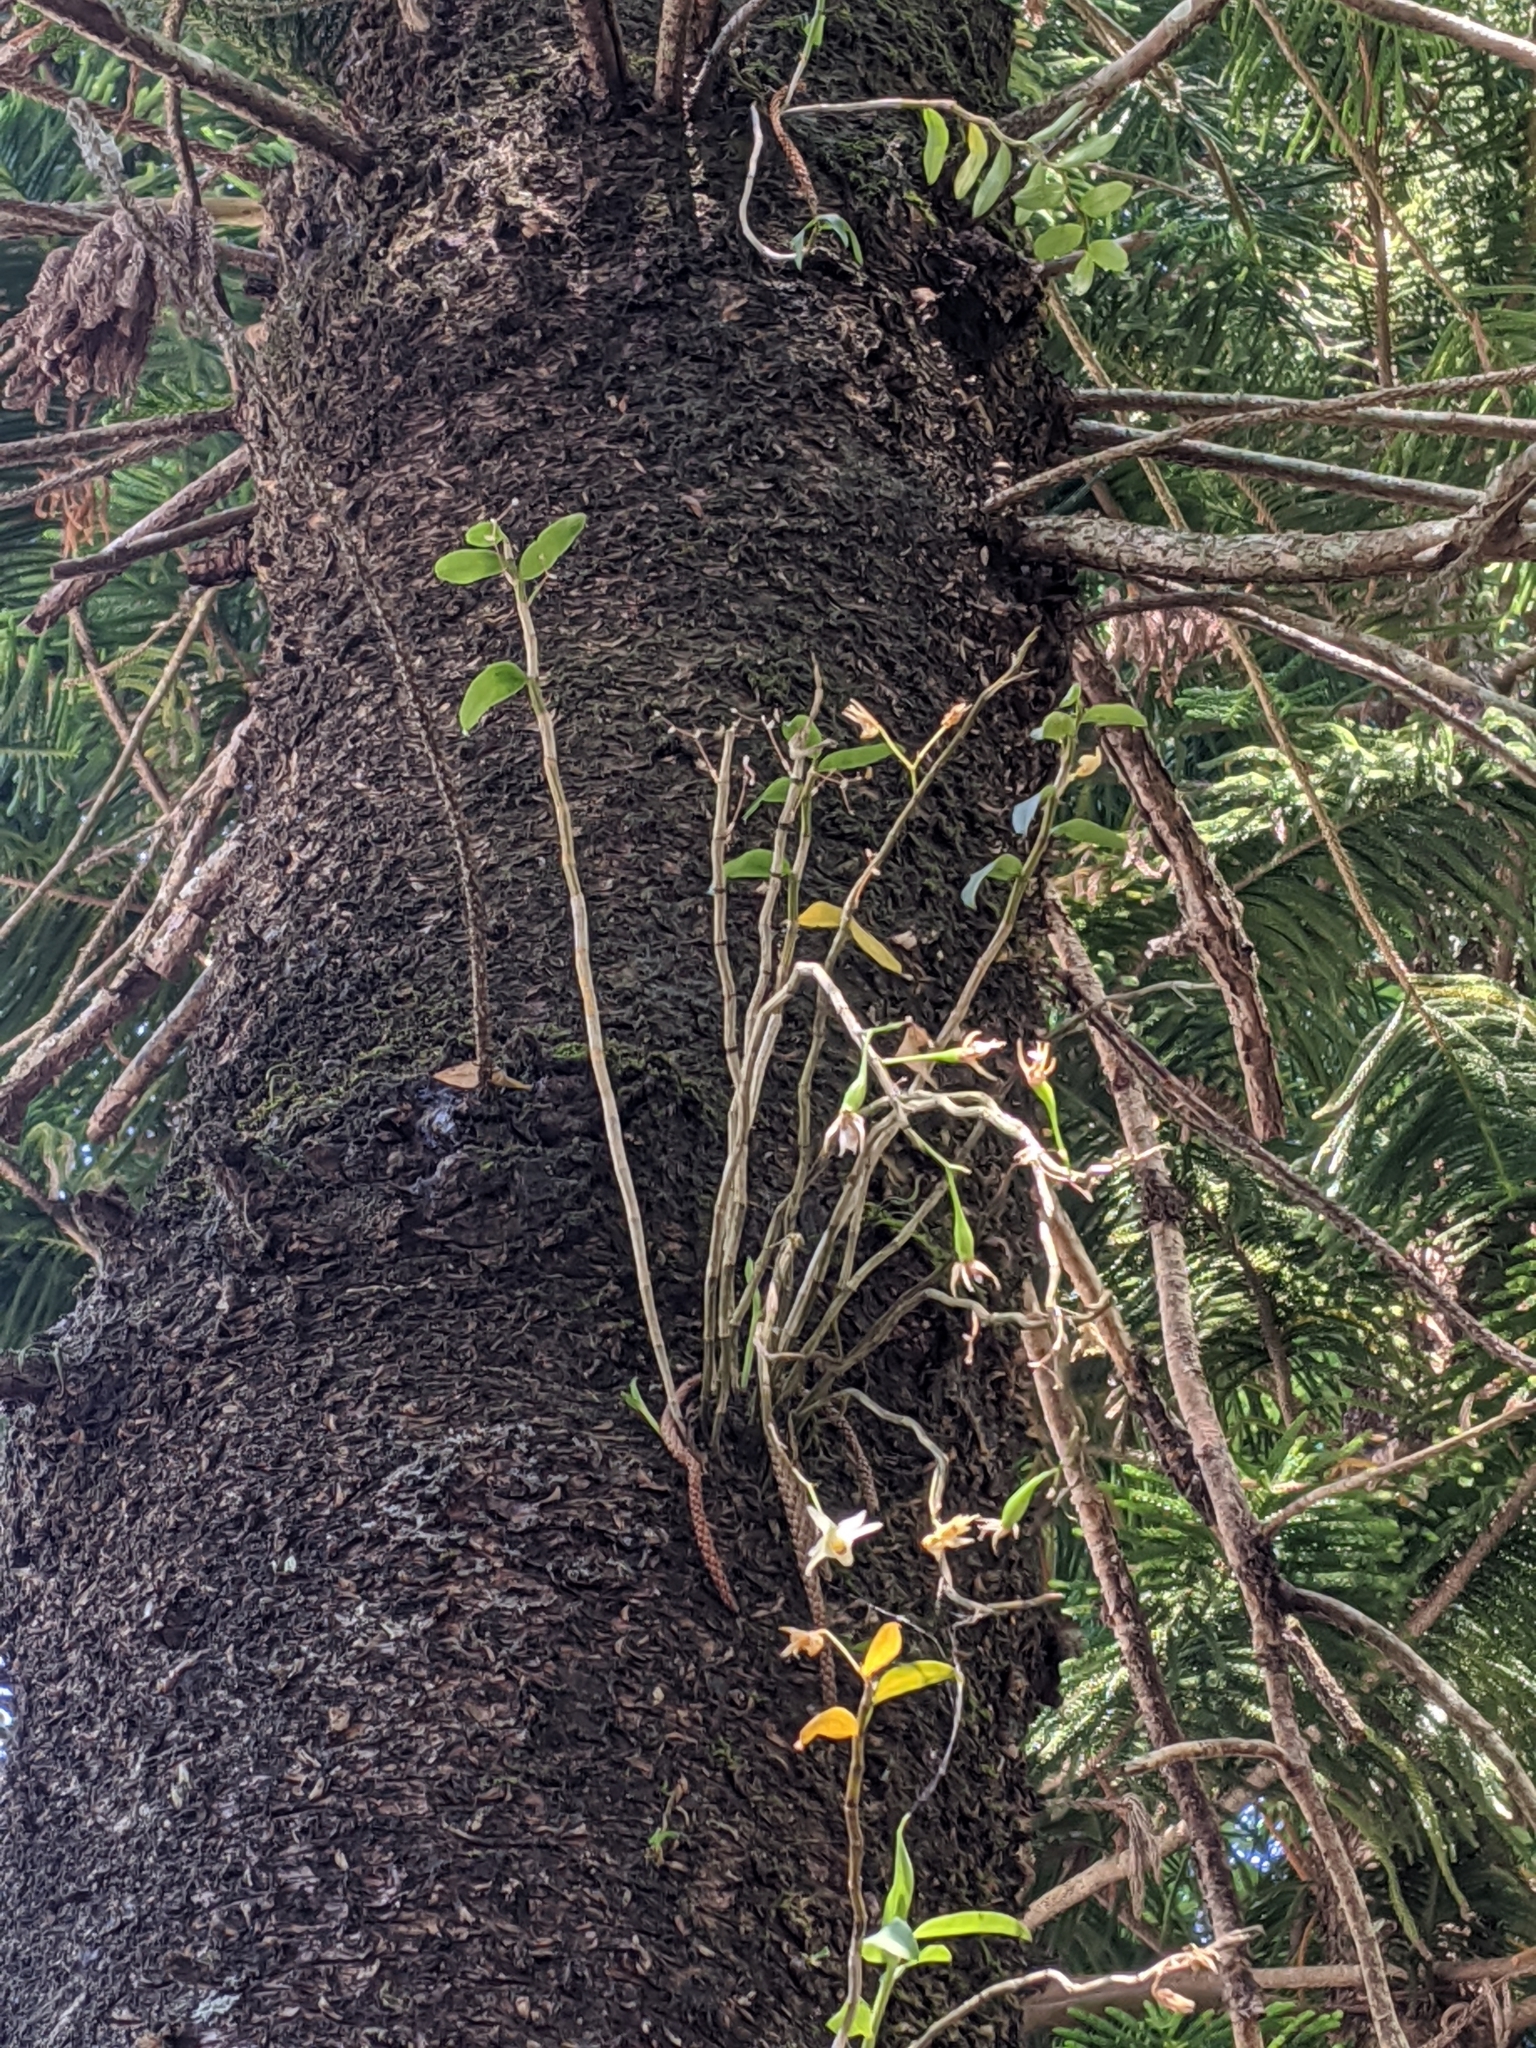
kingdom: Plantae
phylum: Tracheophyta
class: Liliopsida
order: Asparagales
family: Orchidaceae
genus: Dendrobium
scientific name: Dendrobium officinale
